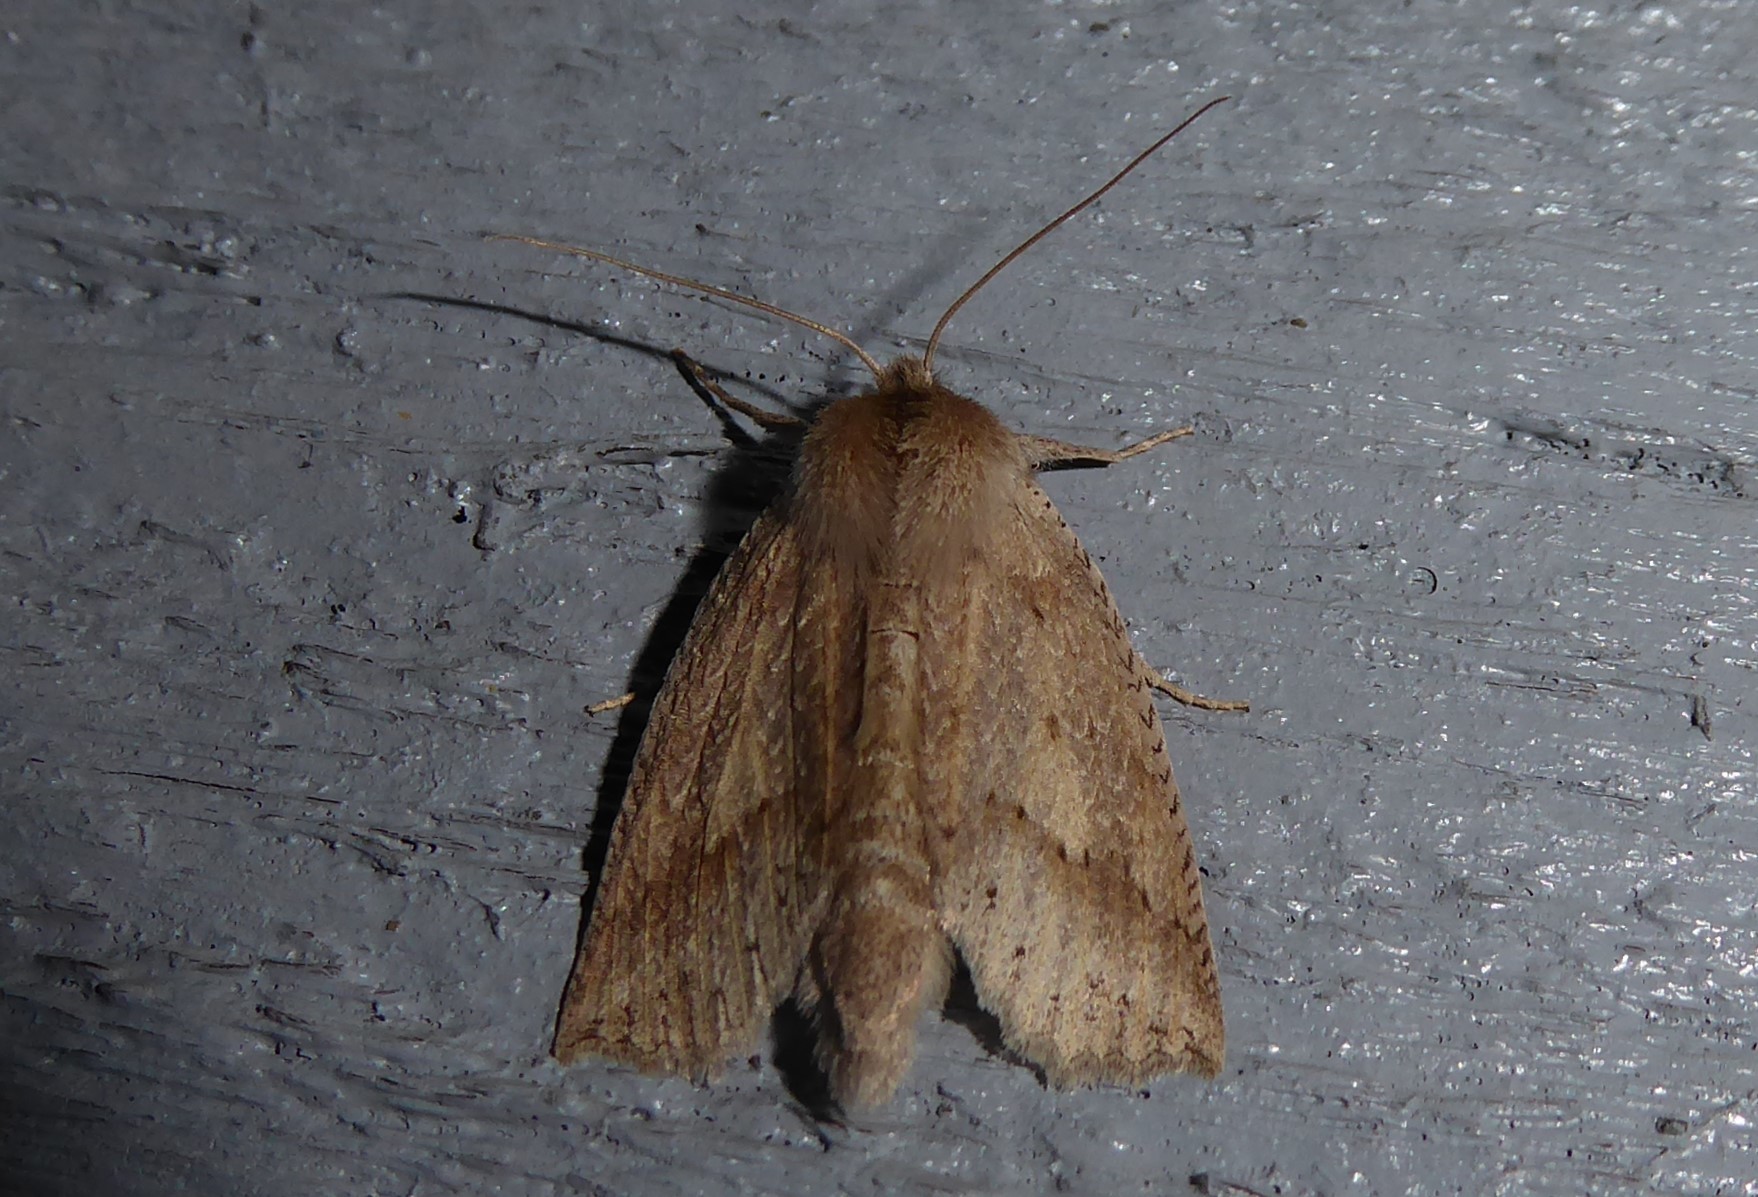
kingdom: Animalia
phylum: Arthropoda
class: Insecta
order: Lepidoptera
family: Geometridae
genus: Declana
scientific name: Declana leptomera
